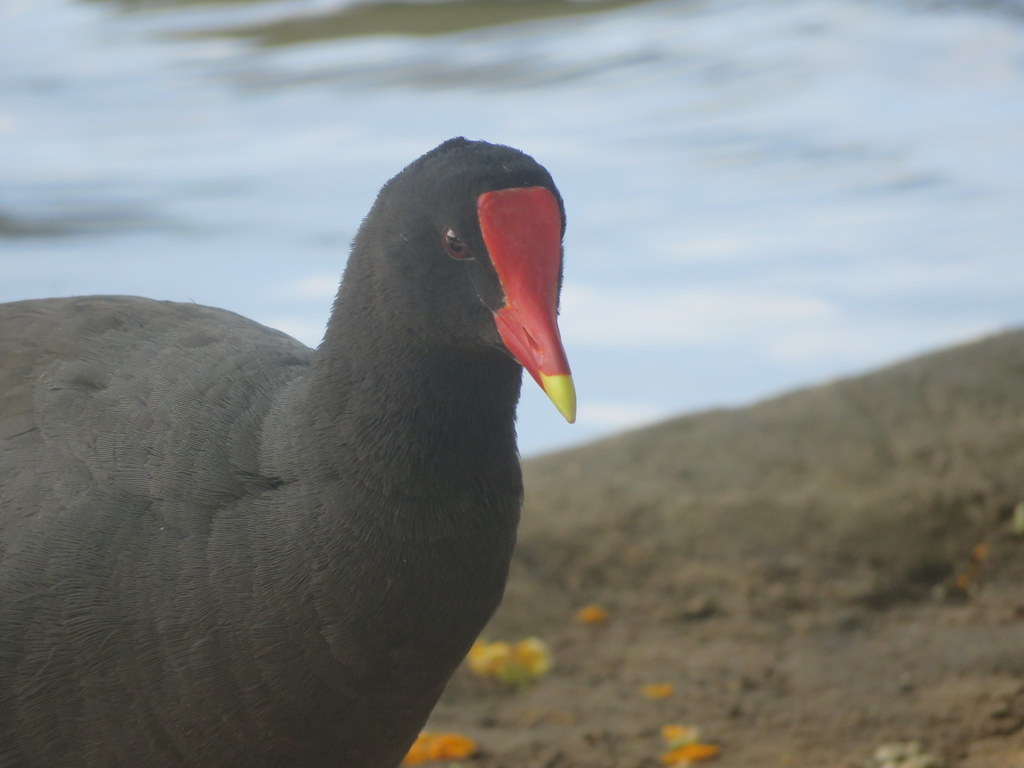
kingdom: Animalia
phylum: Chordata
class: Aves
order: Gruiformes
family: Rallidae
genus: Gallinula
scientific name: Gallinula chloropus
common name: Common moorhen
